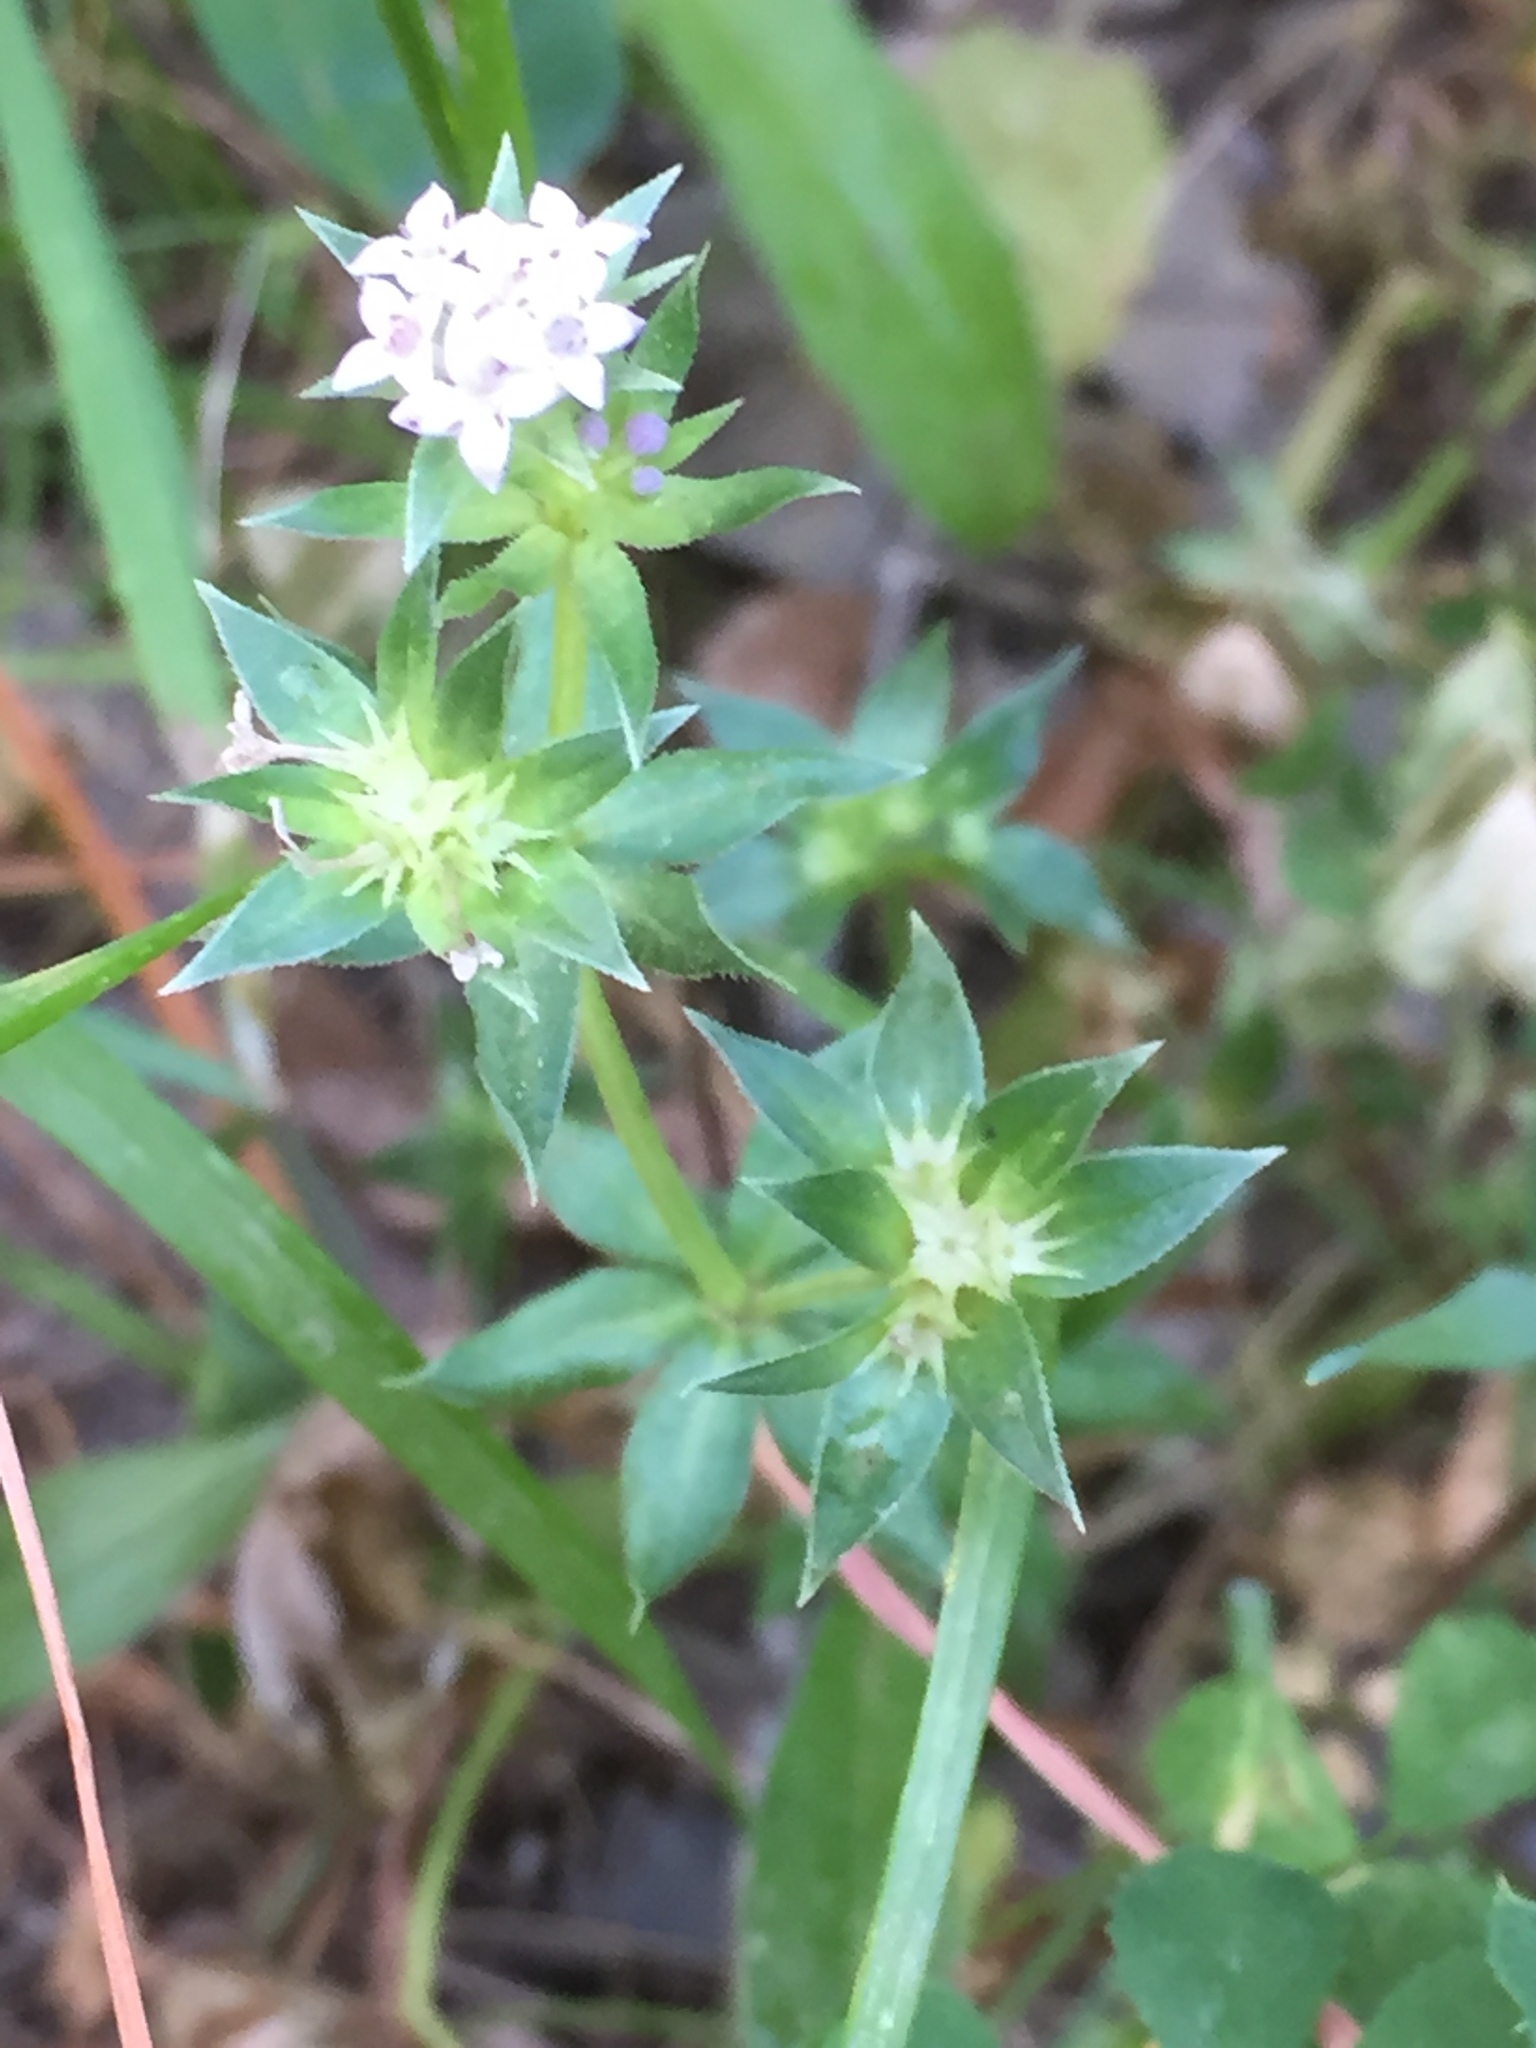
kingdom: Plantae
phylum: Tracheophyta
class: Magnoliopsida
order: Gentianales
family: Rubiaceae
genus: Sherardia
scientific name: Sherardia arvensis
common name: Field madder
